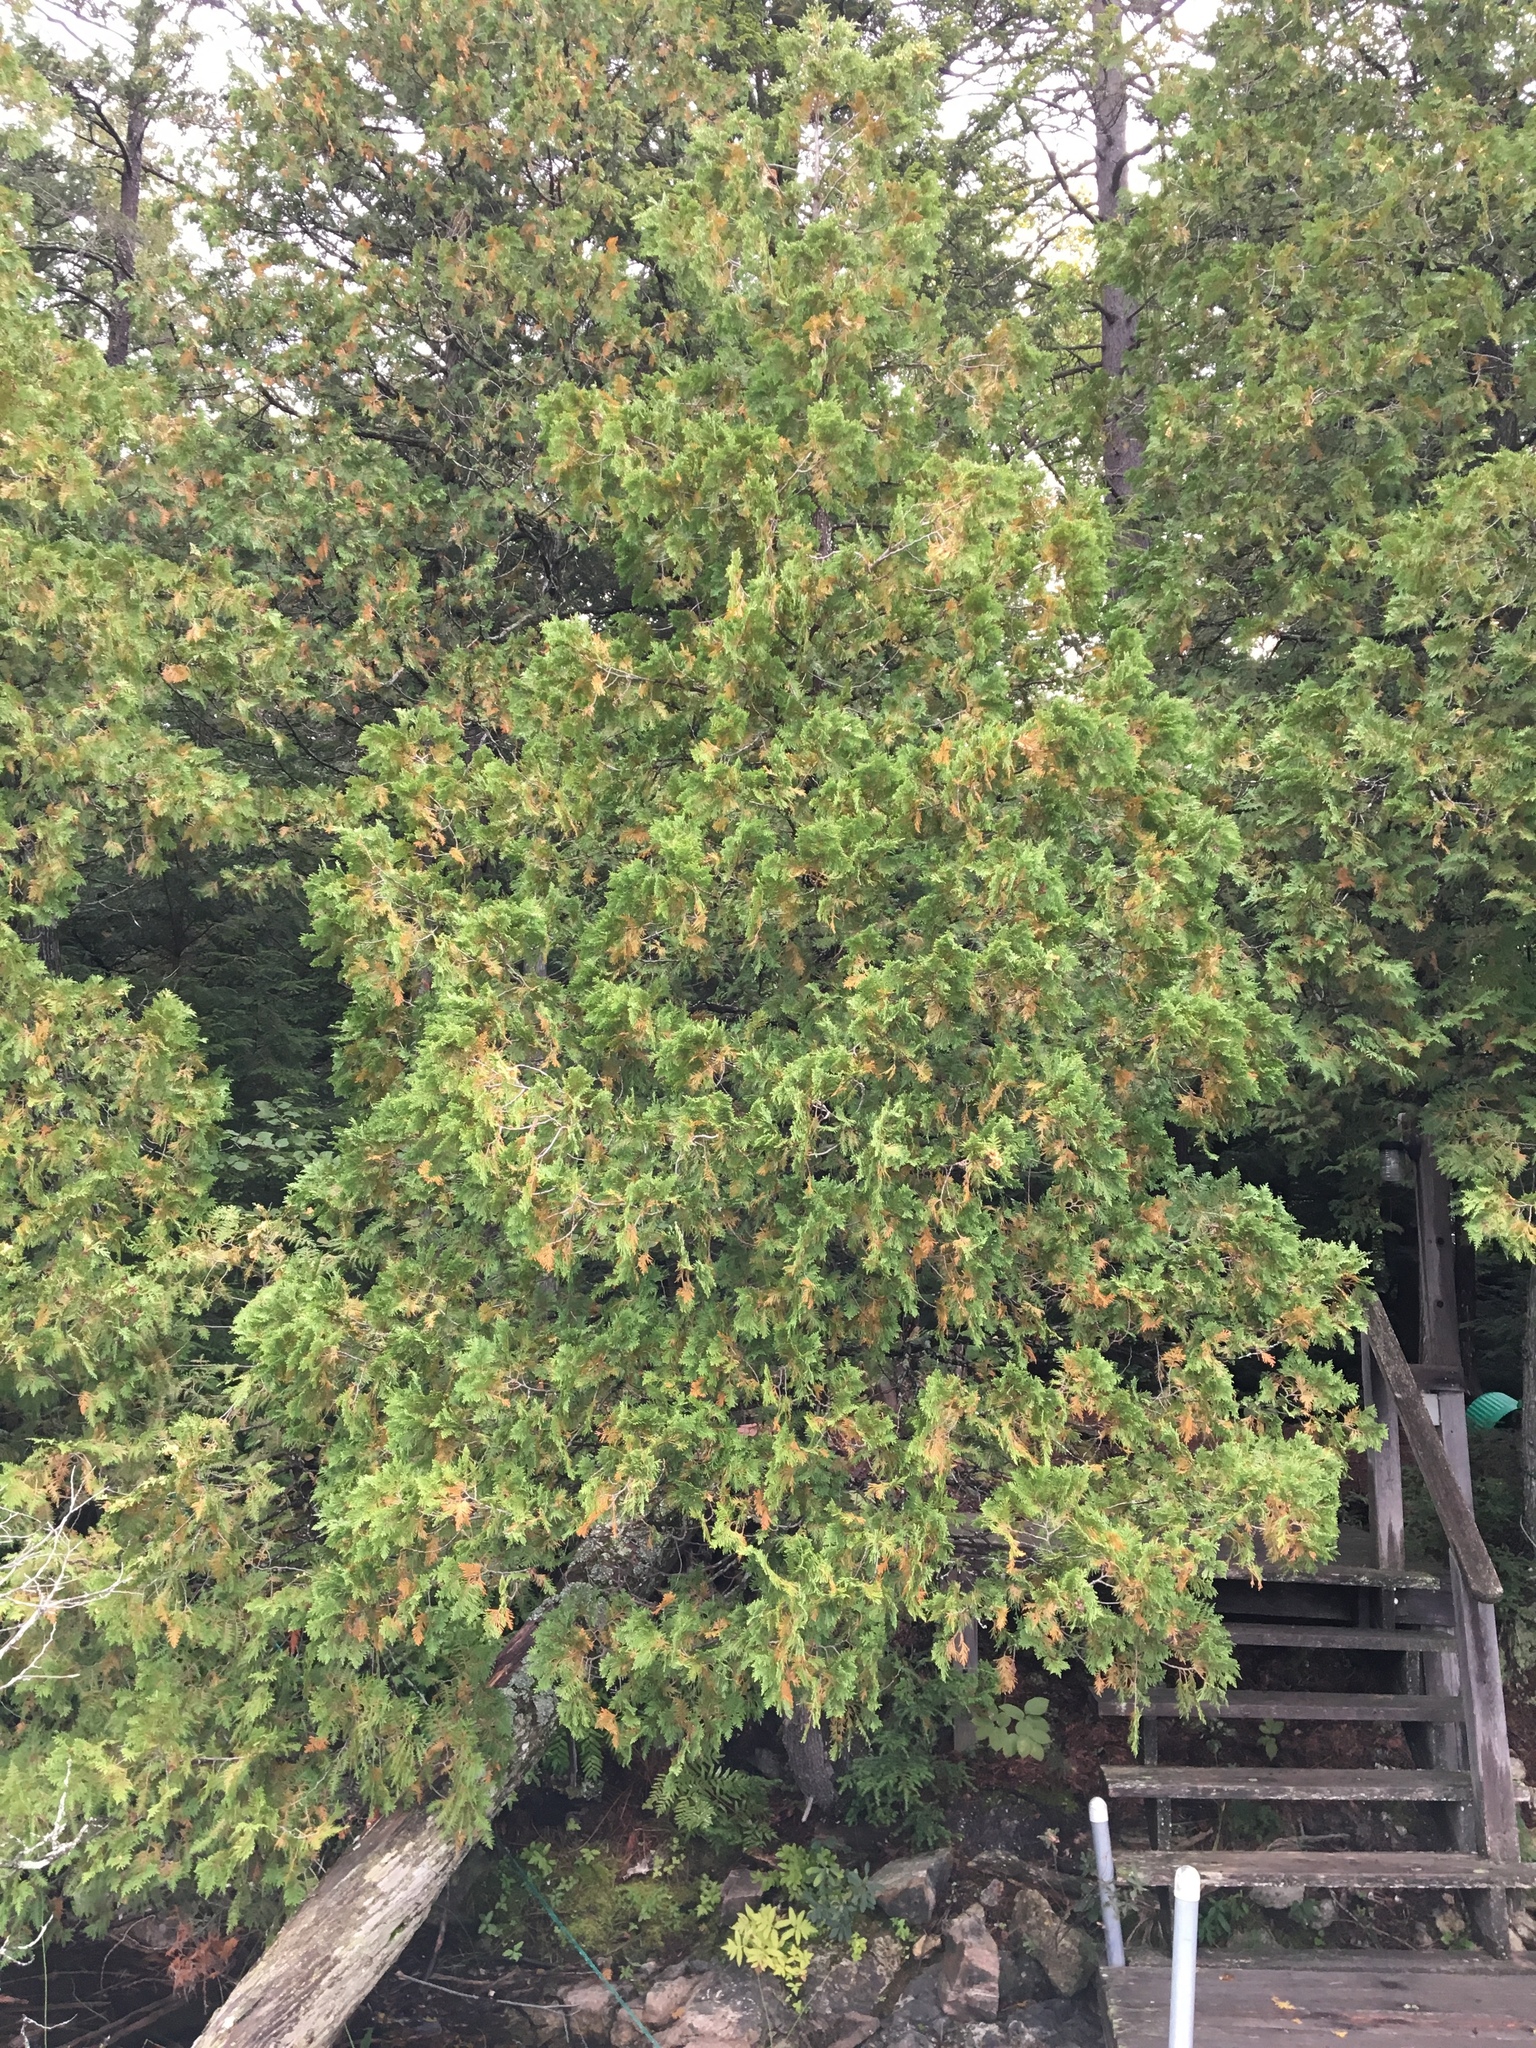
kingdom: Plantae
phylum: Tracheophyta
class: Pinopsida
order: Pinales
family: Cupressaceae
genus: Thuja
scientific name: Thuja occidentalis
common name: Northern white-cedar
